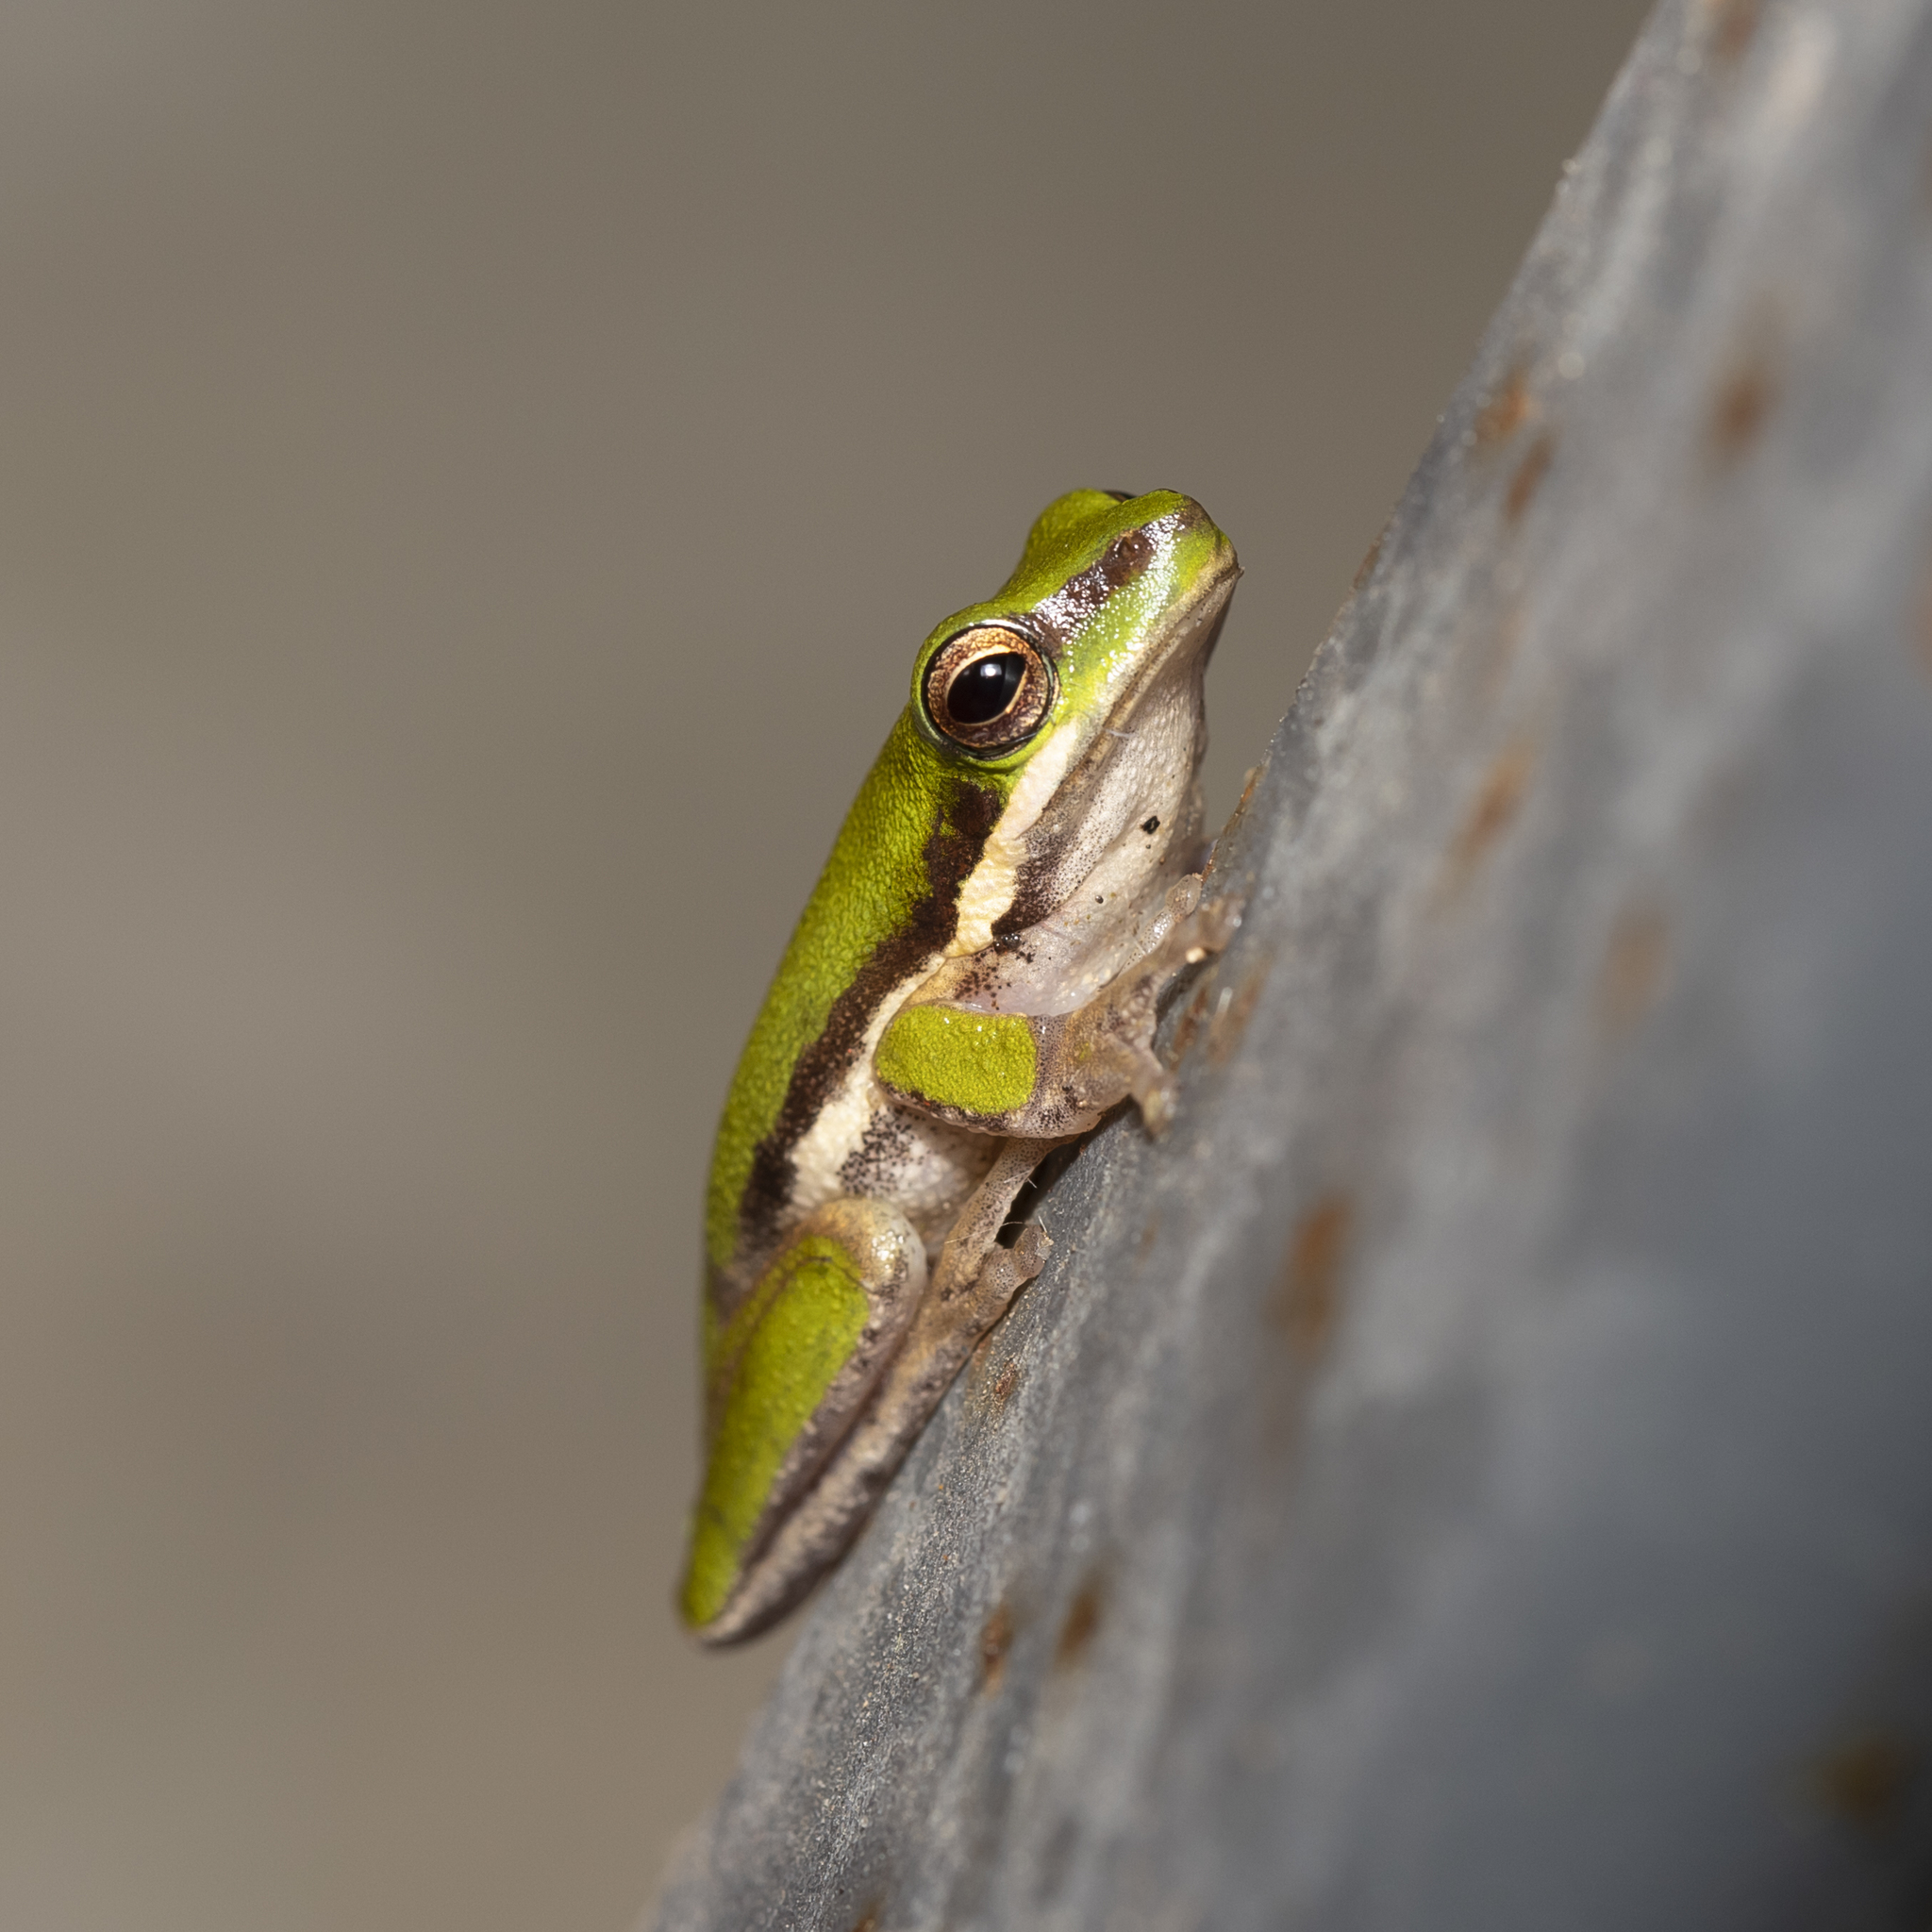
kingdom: Animalia
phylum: Chordata
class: Amphibia
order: Anura
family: Pelodryadidae
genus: Litoria
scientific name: Litoria bicolor
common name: Green reed frog
